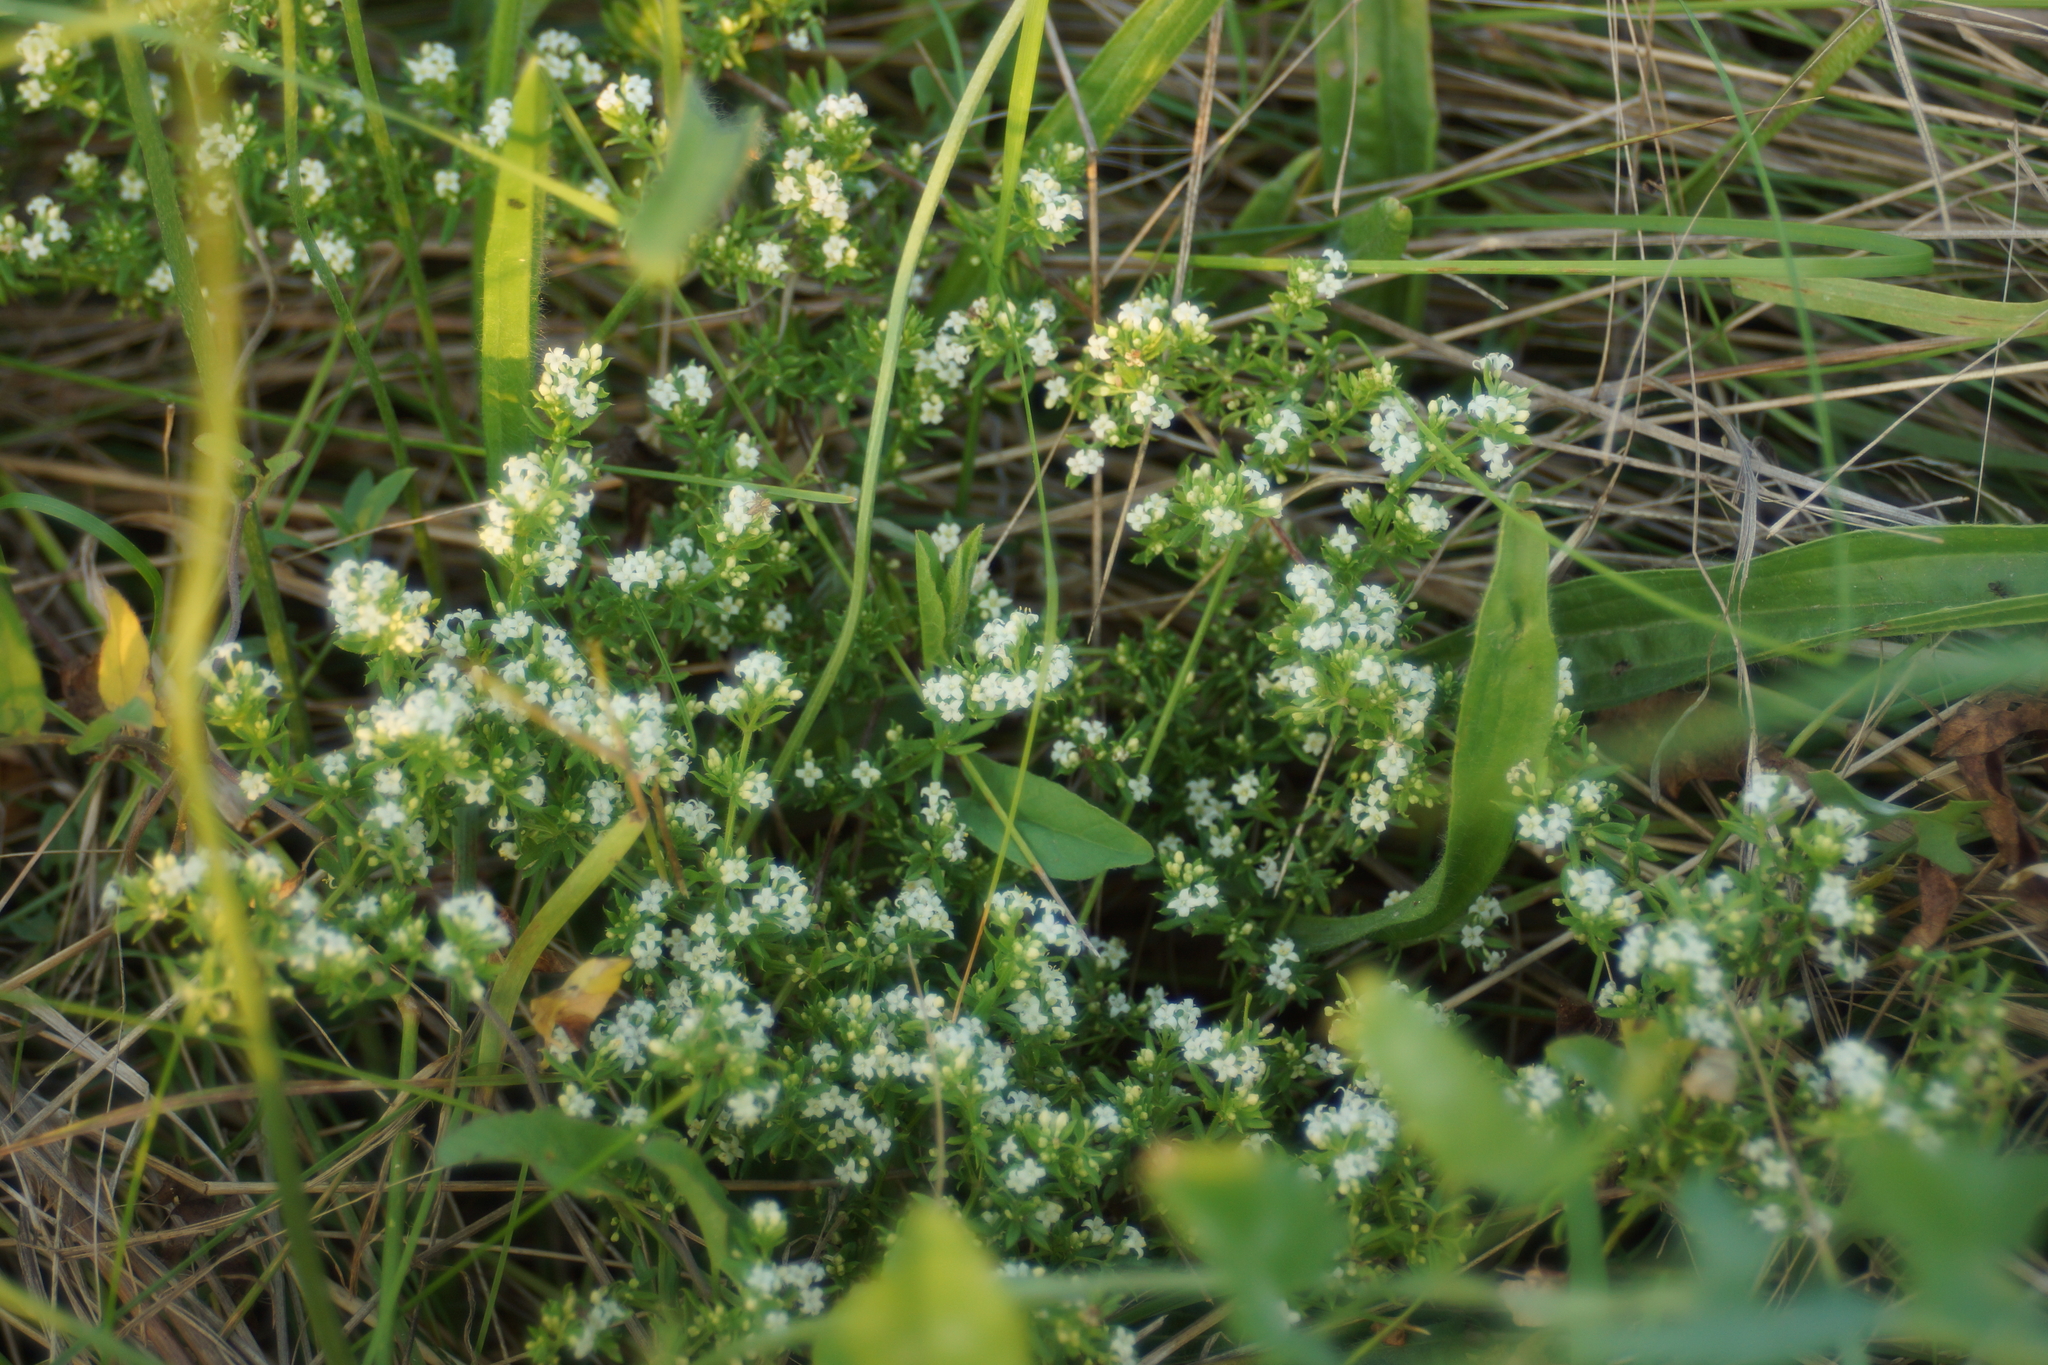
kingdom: Plantae
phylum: Tracheophyta
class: Magnoliopsida
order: Gentianales
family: Rubiaceae
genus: Galium
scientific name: Galium humifusum
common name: Spreading bedstraw
